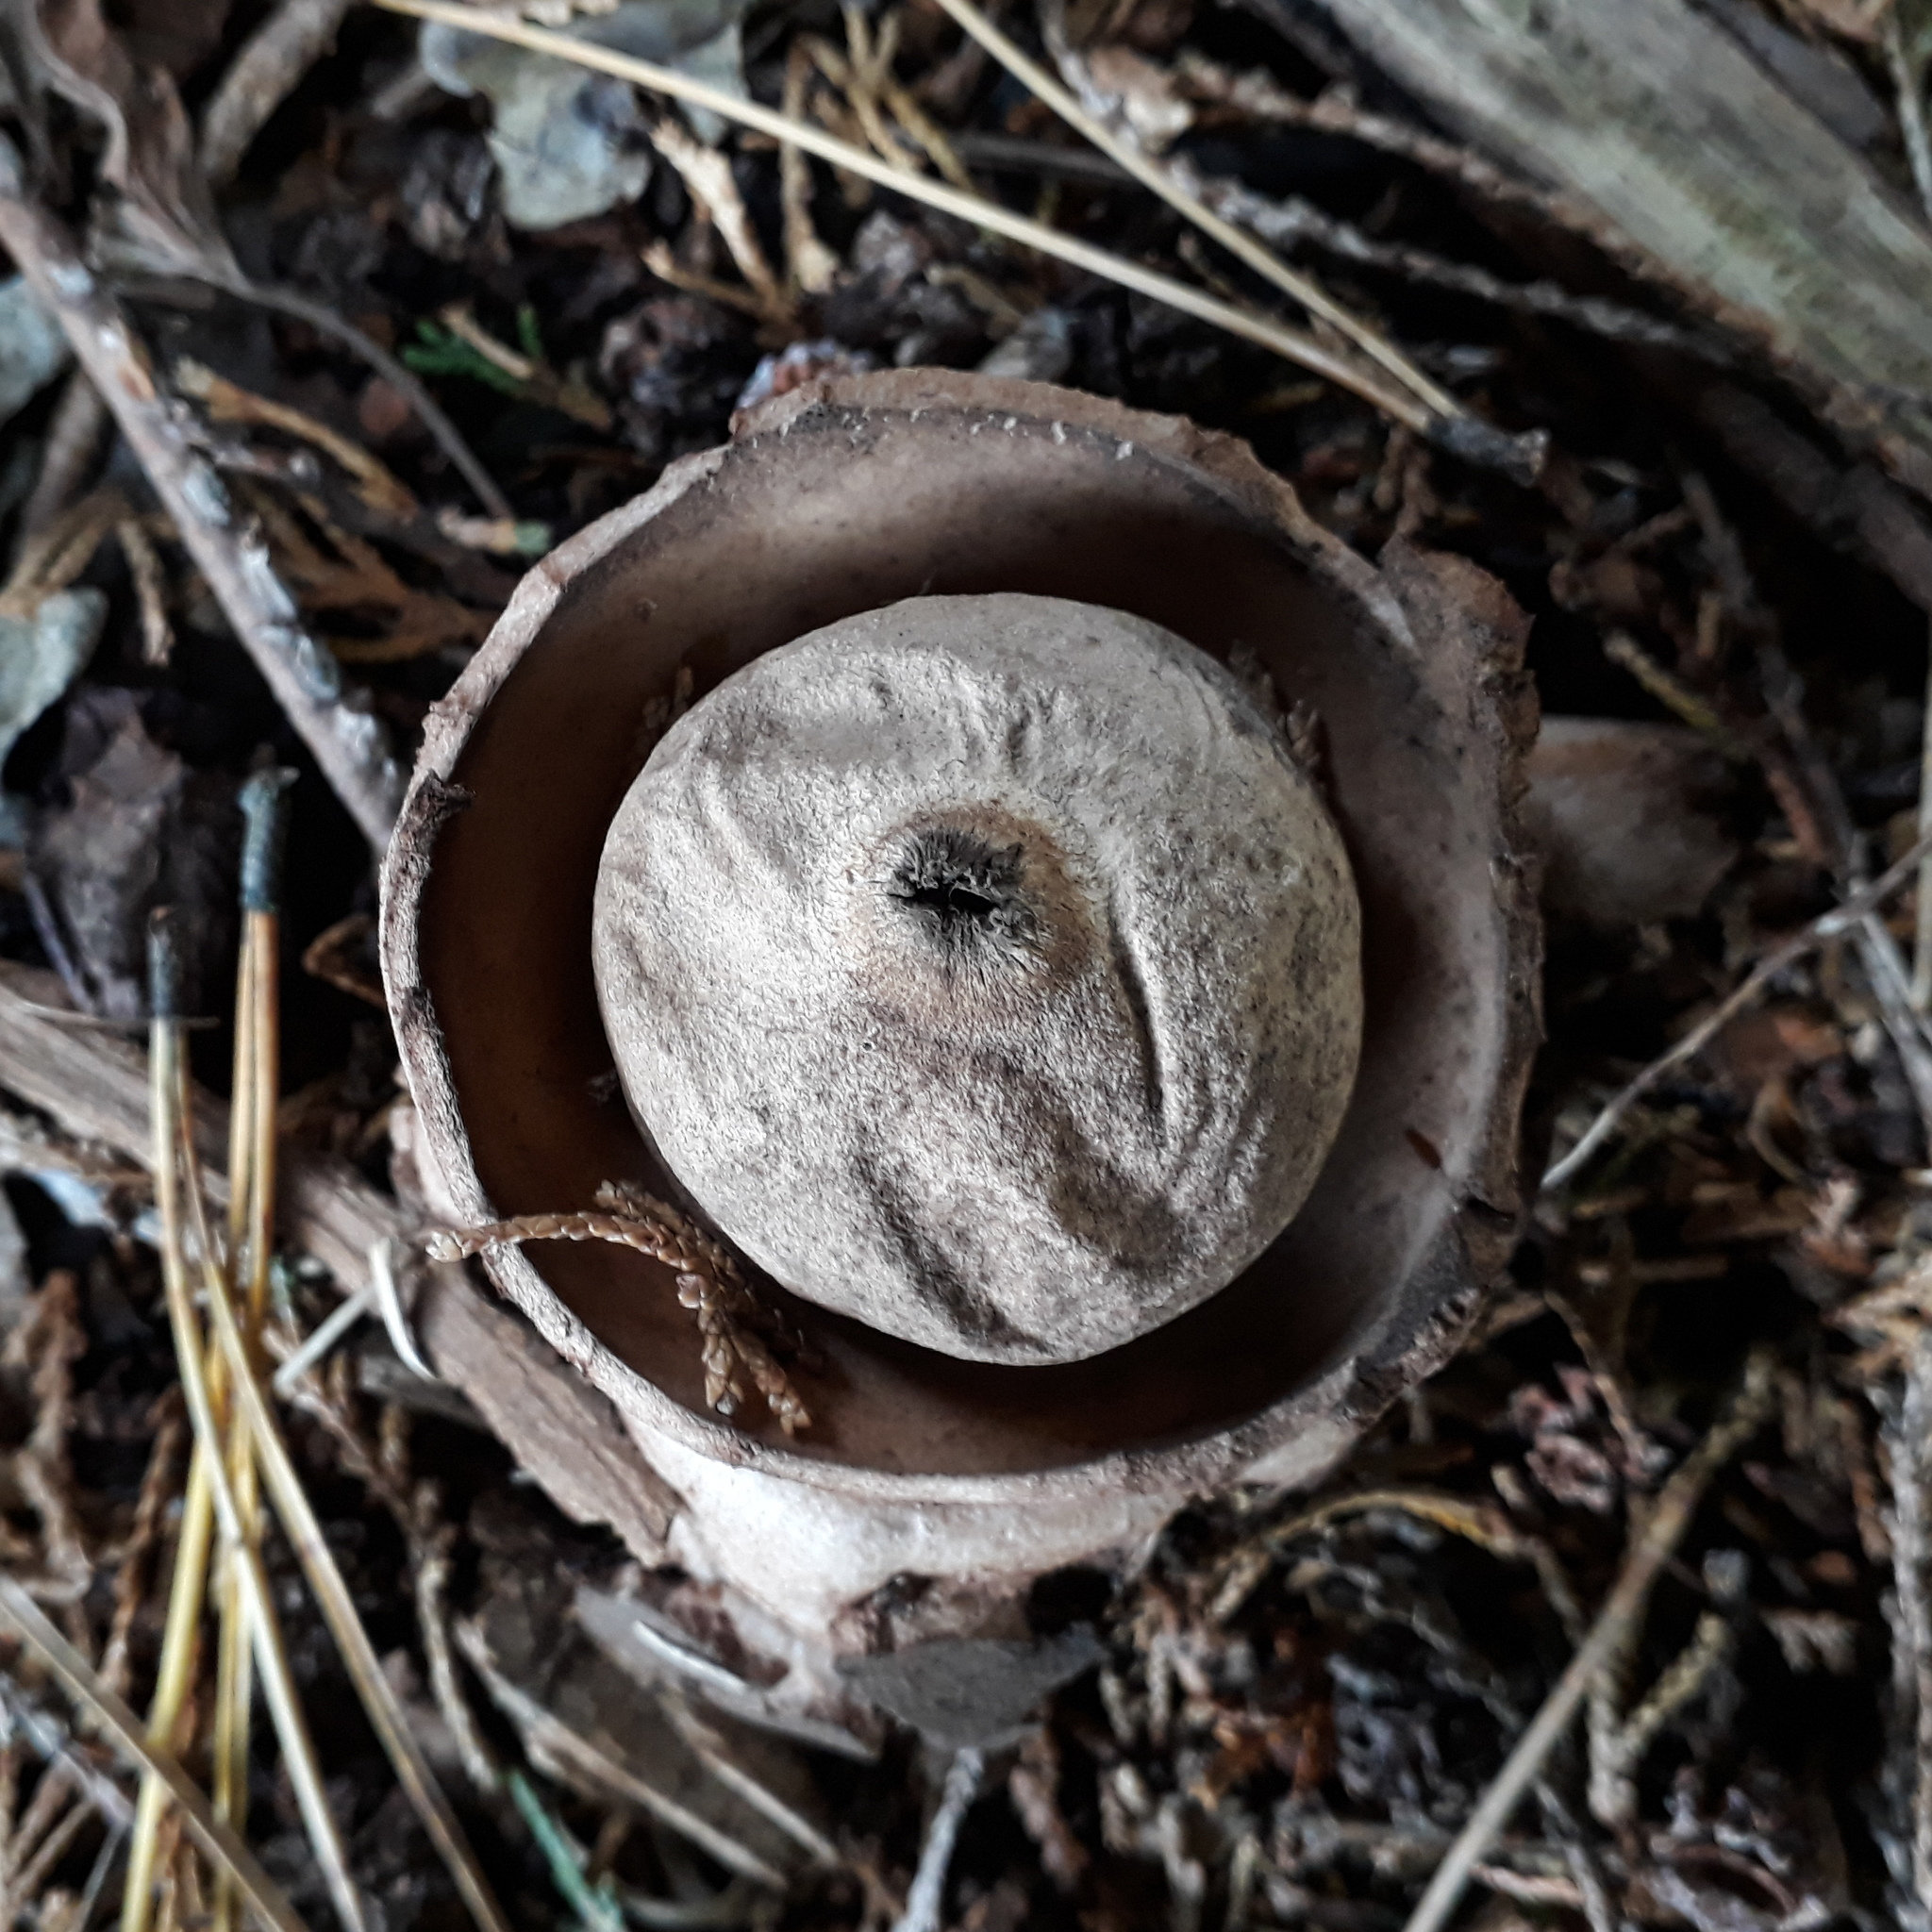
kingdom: Fungi
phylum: Basidiomycota
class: Agaricomycetes
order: Geastrales
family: Geastraceae
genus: Geastrum
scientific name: Geastrum triplex
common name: Collared earthstar
